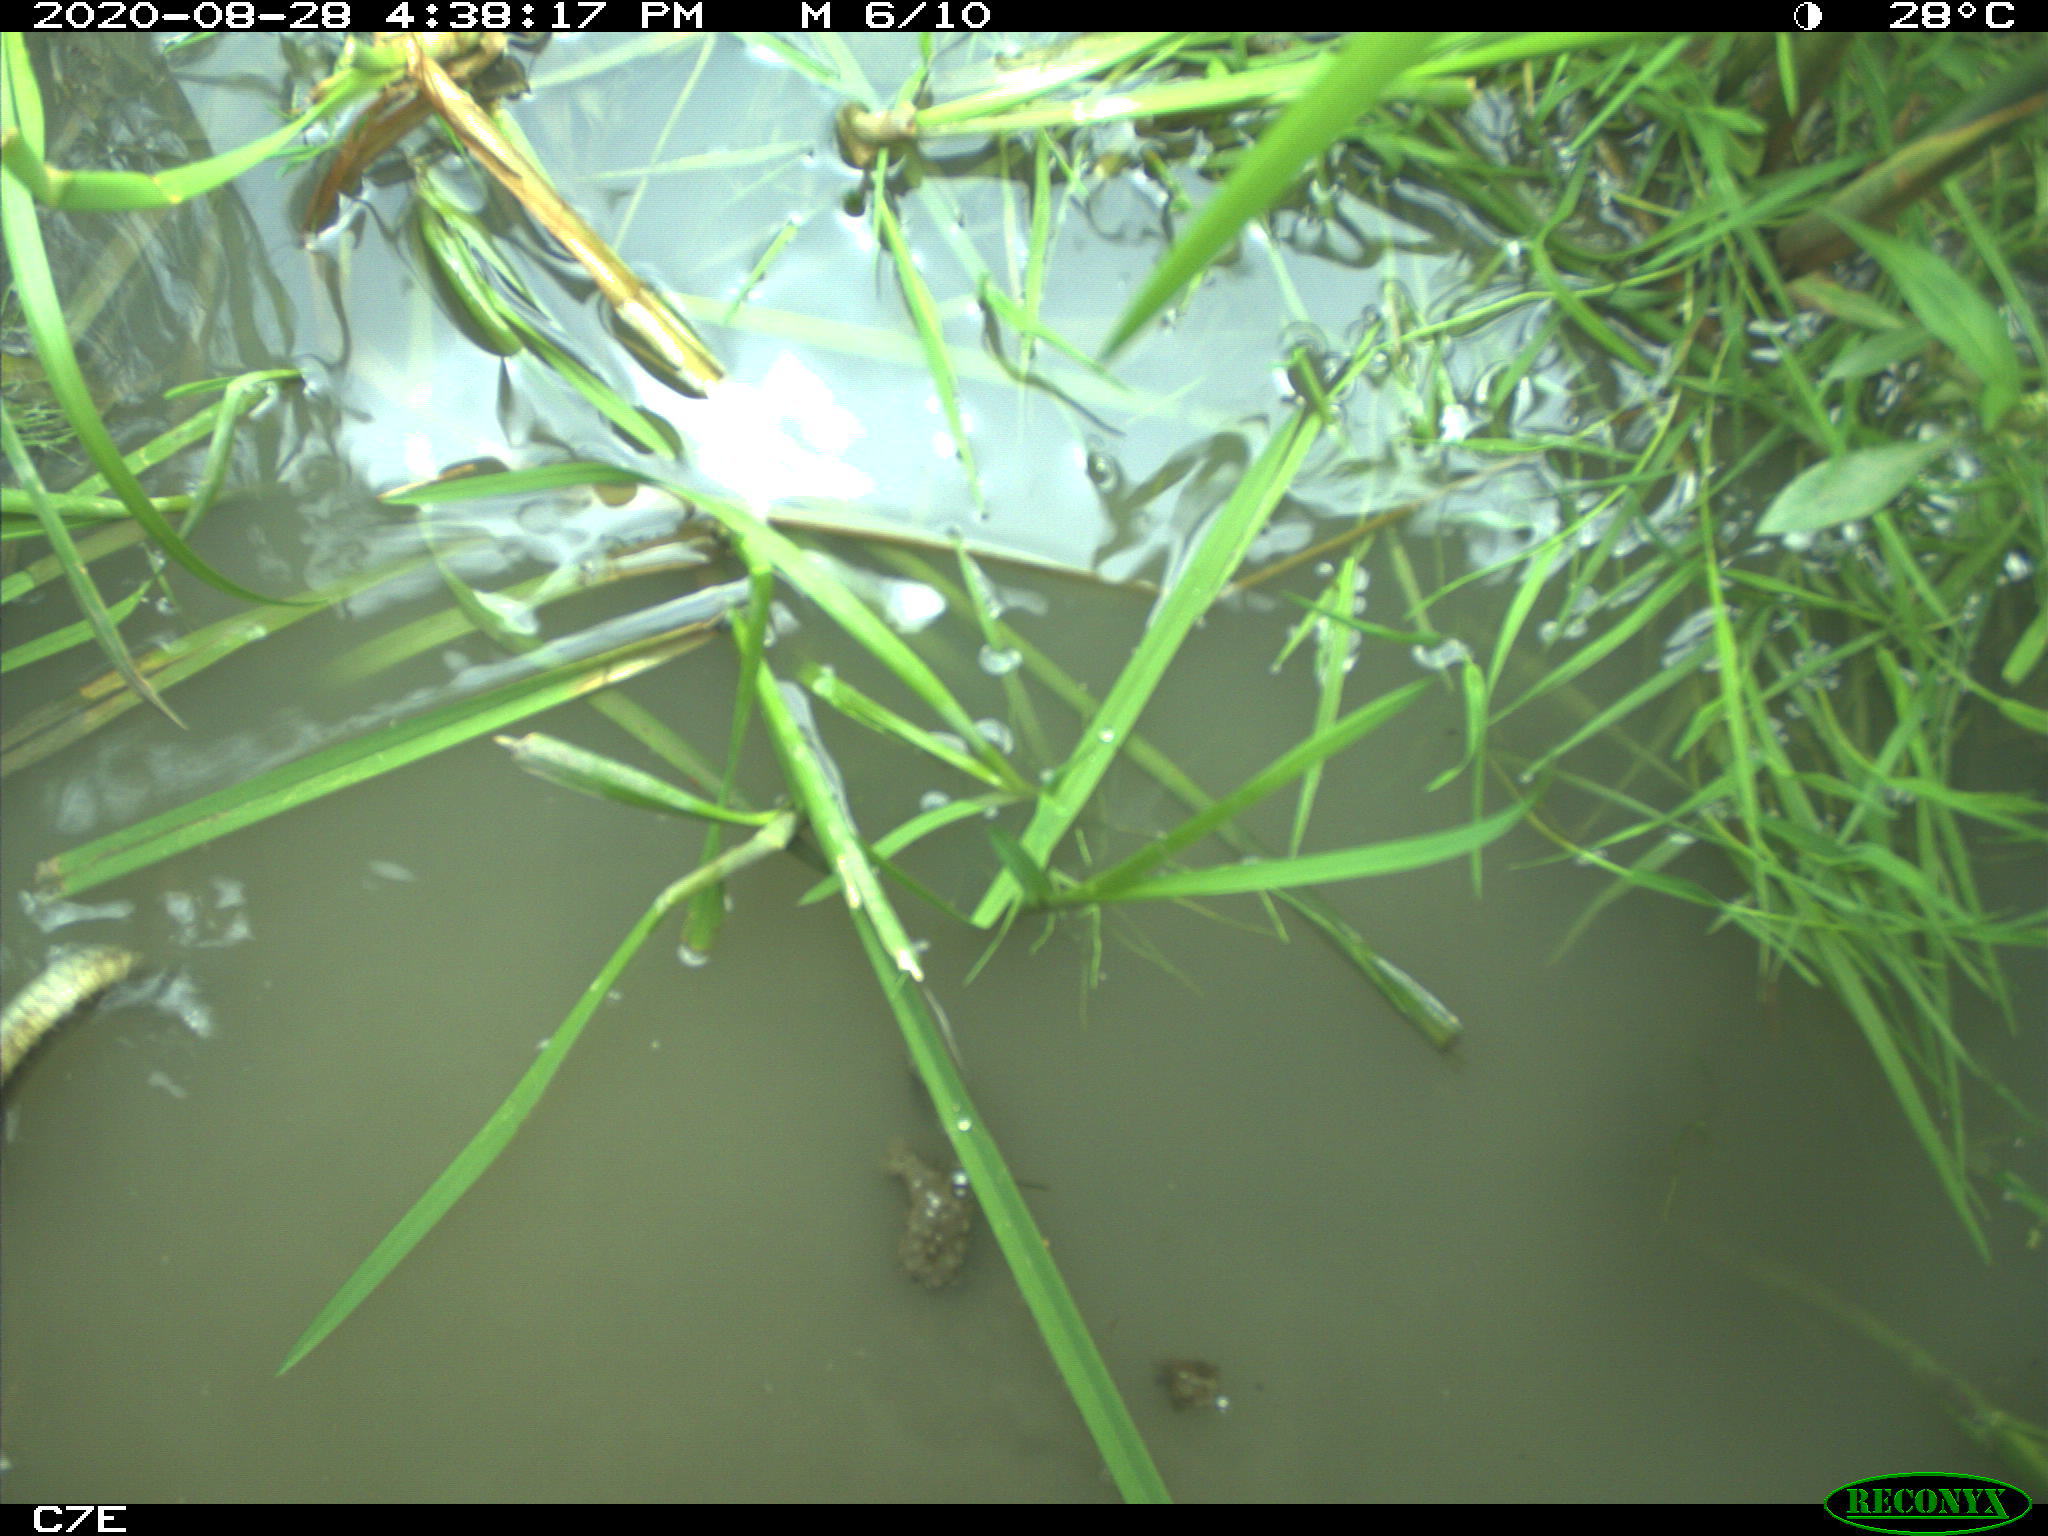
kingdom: Animalia
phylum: Chordata
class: Squamata
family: Colubridae
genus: Thamnophis
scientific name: Thamnophis sirtalis
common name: Common garter snake
